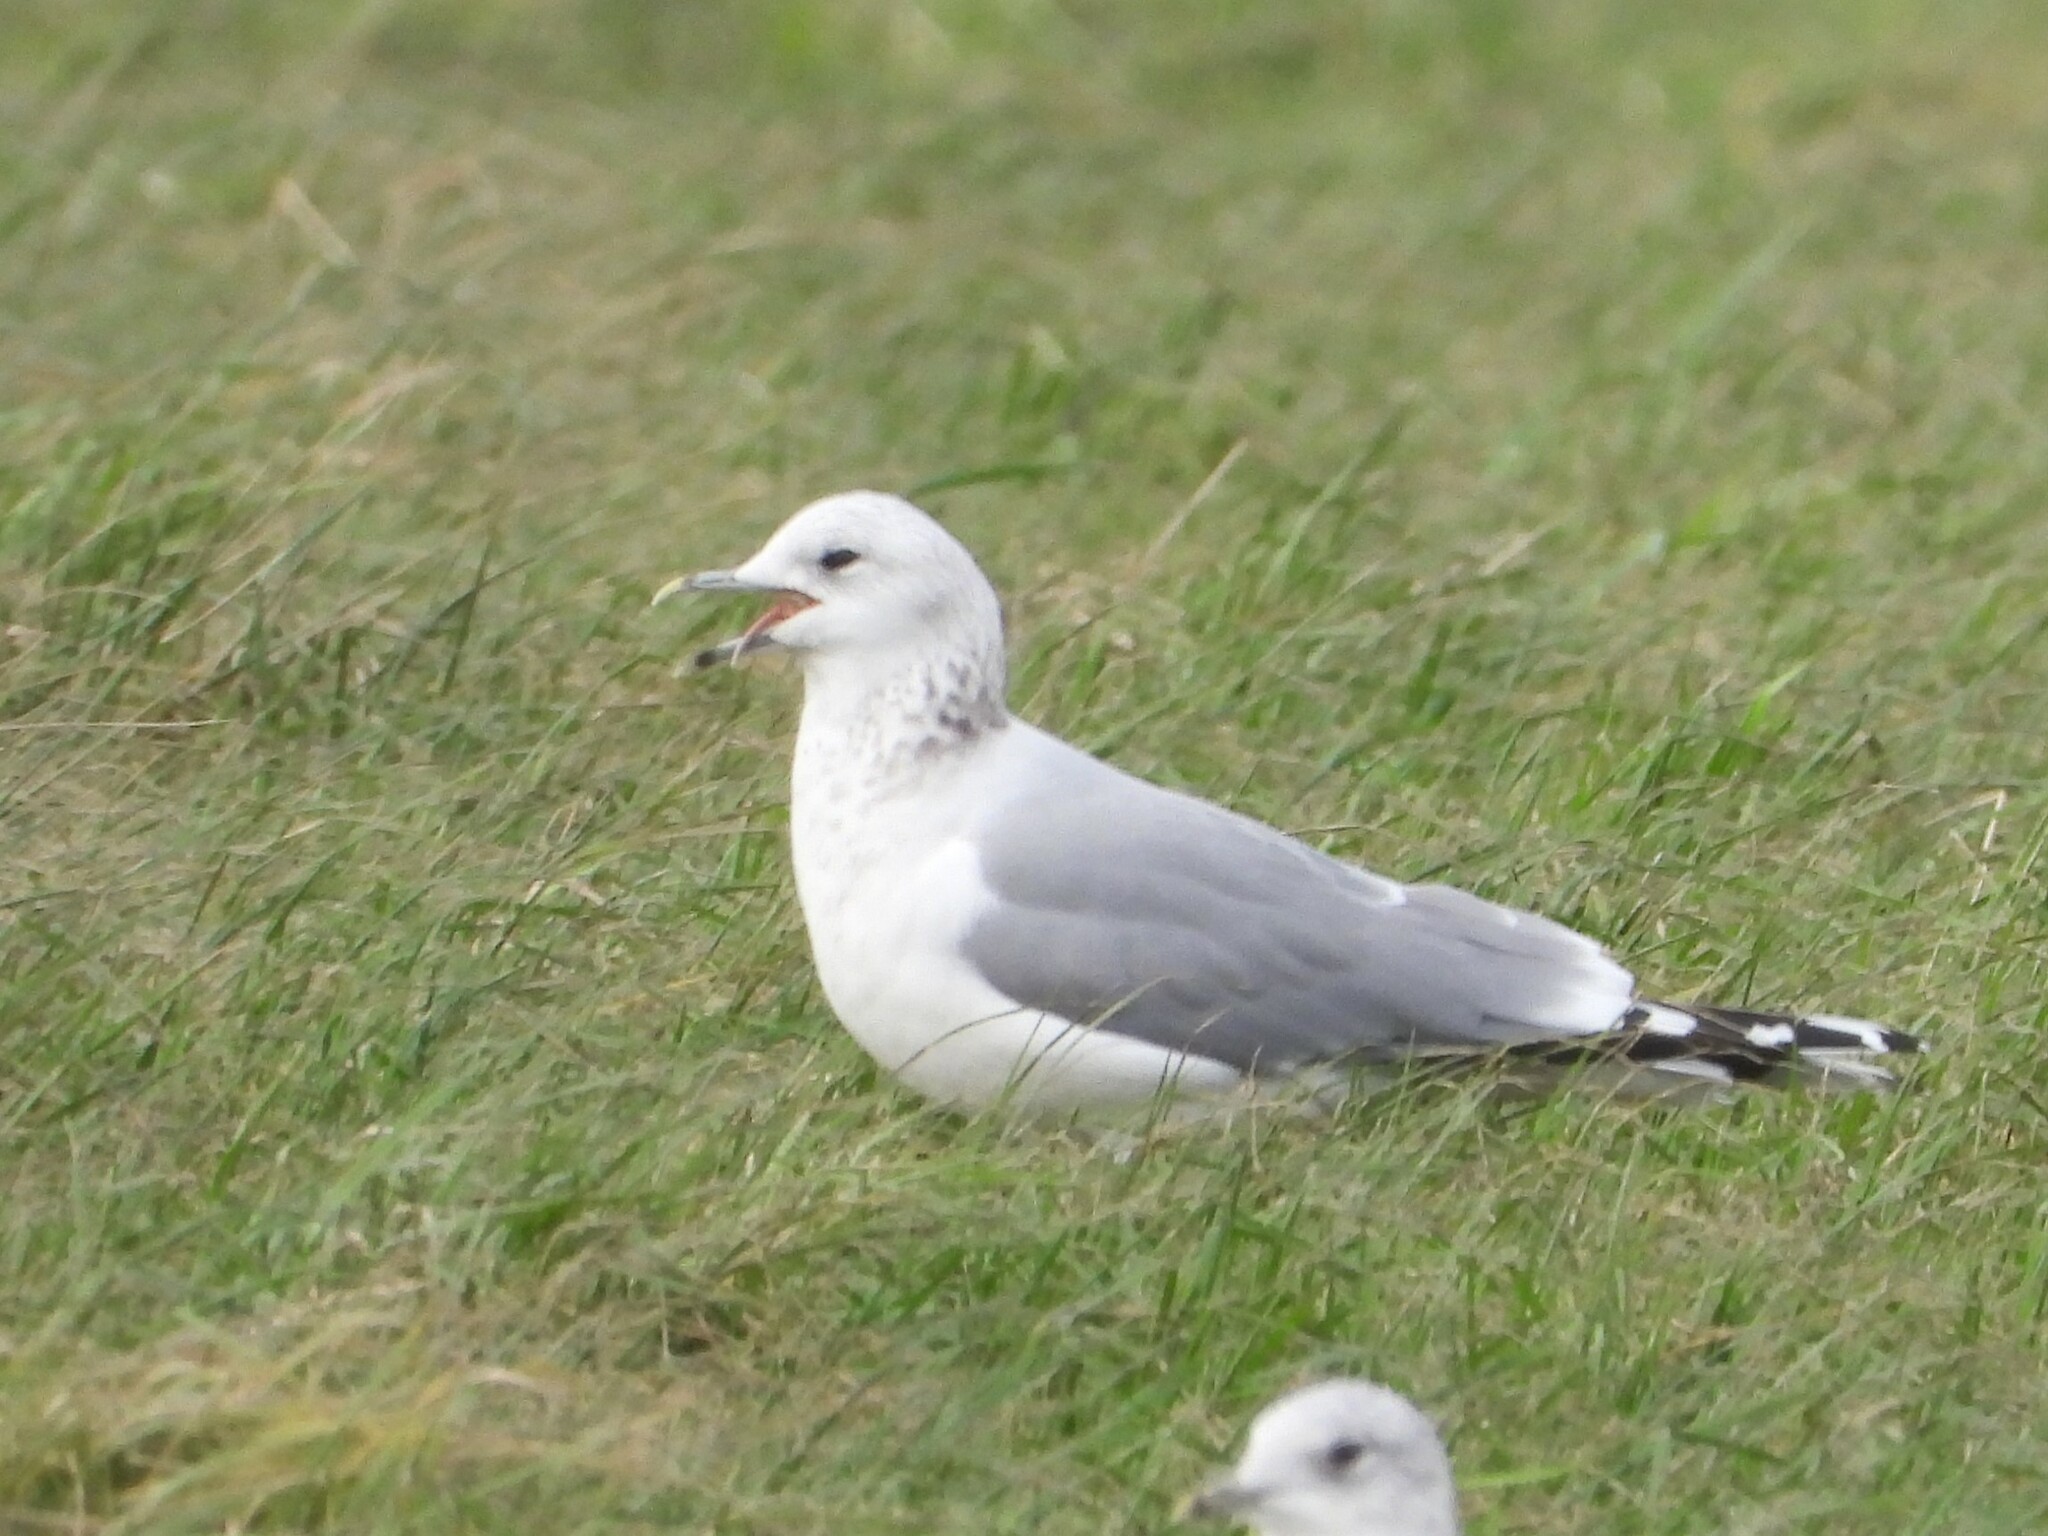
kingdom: Animalia
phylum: Chordata
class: Aves
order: Charadriiformes
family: Laridae
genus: Larus
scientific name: Larus canus
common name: Mew gull
